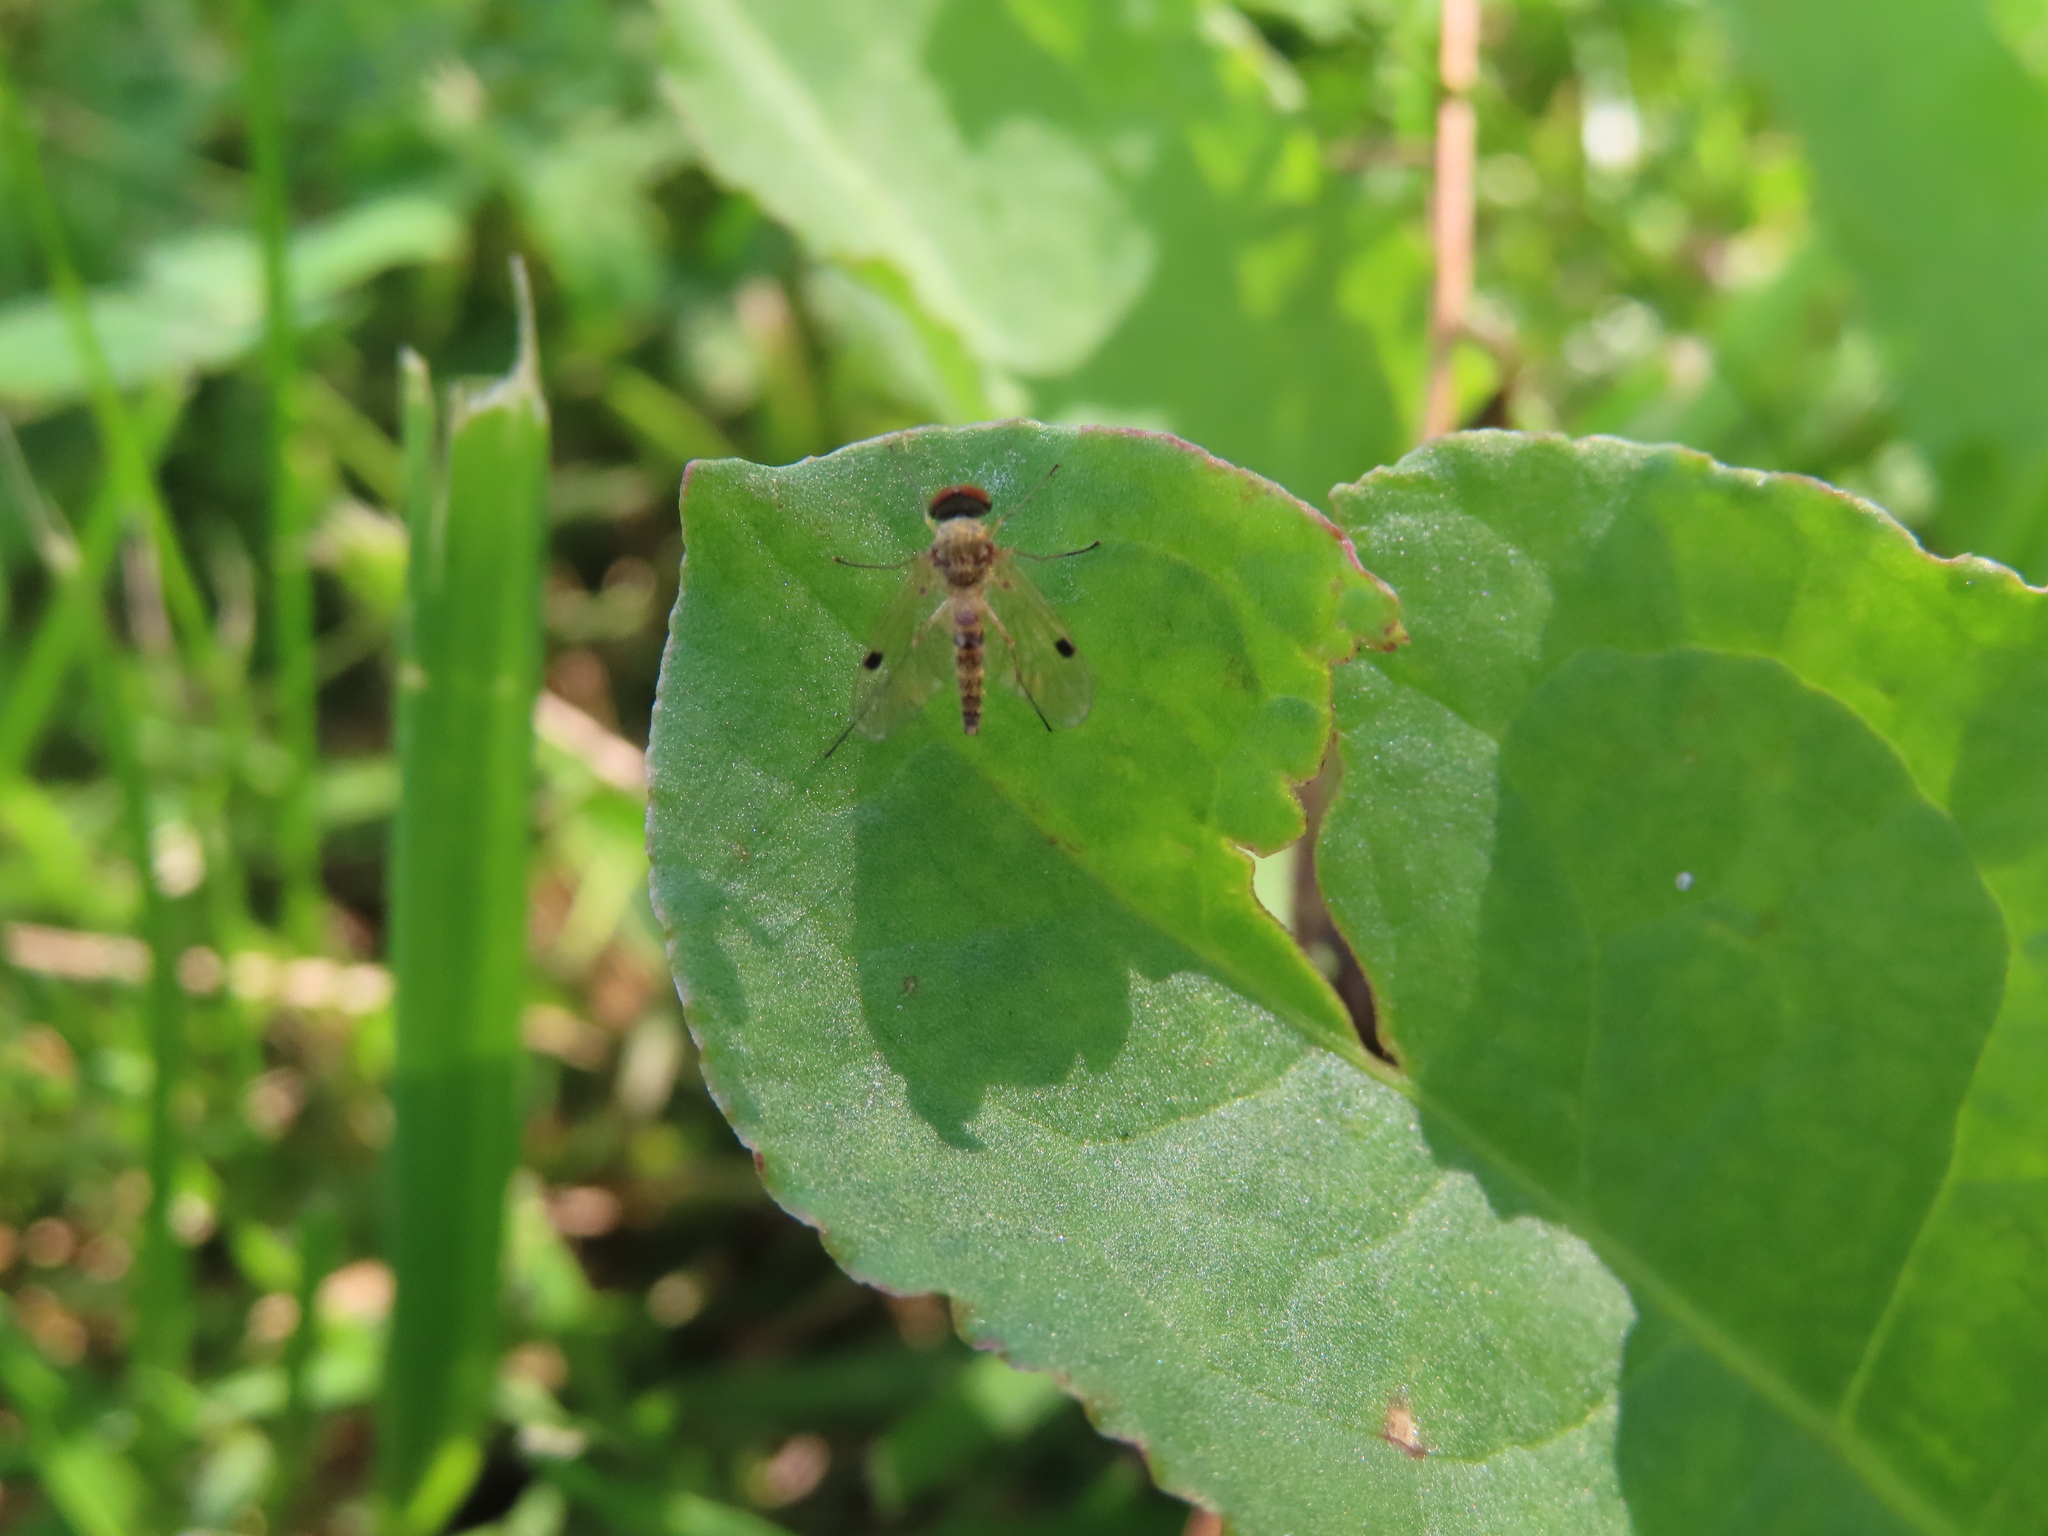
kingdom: Animalia
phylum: Arthropoda
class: Insecta
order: Diptera
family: Rhagionidae
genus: Chrysopilus
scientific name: Chrysopilus modestus
